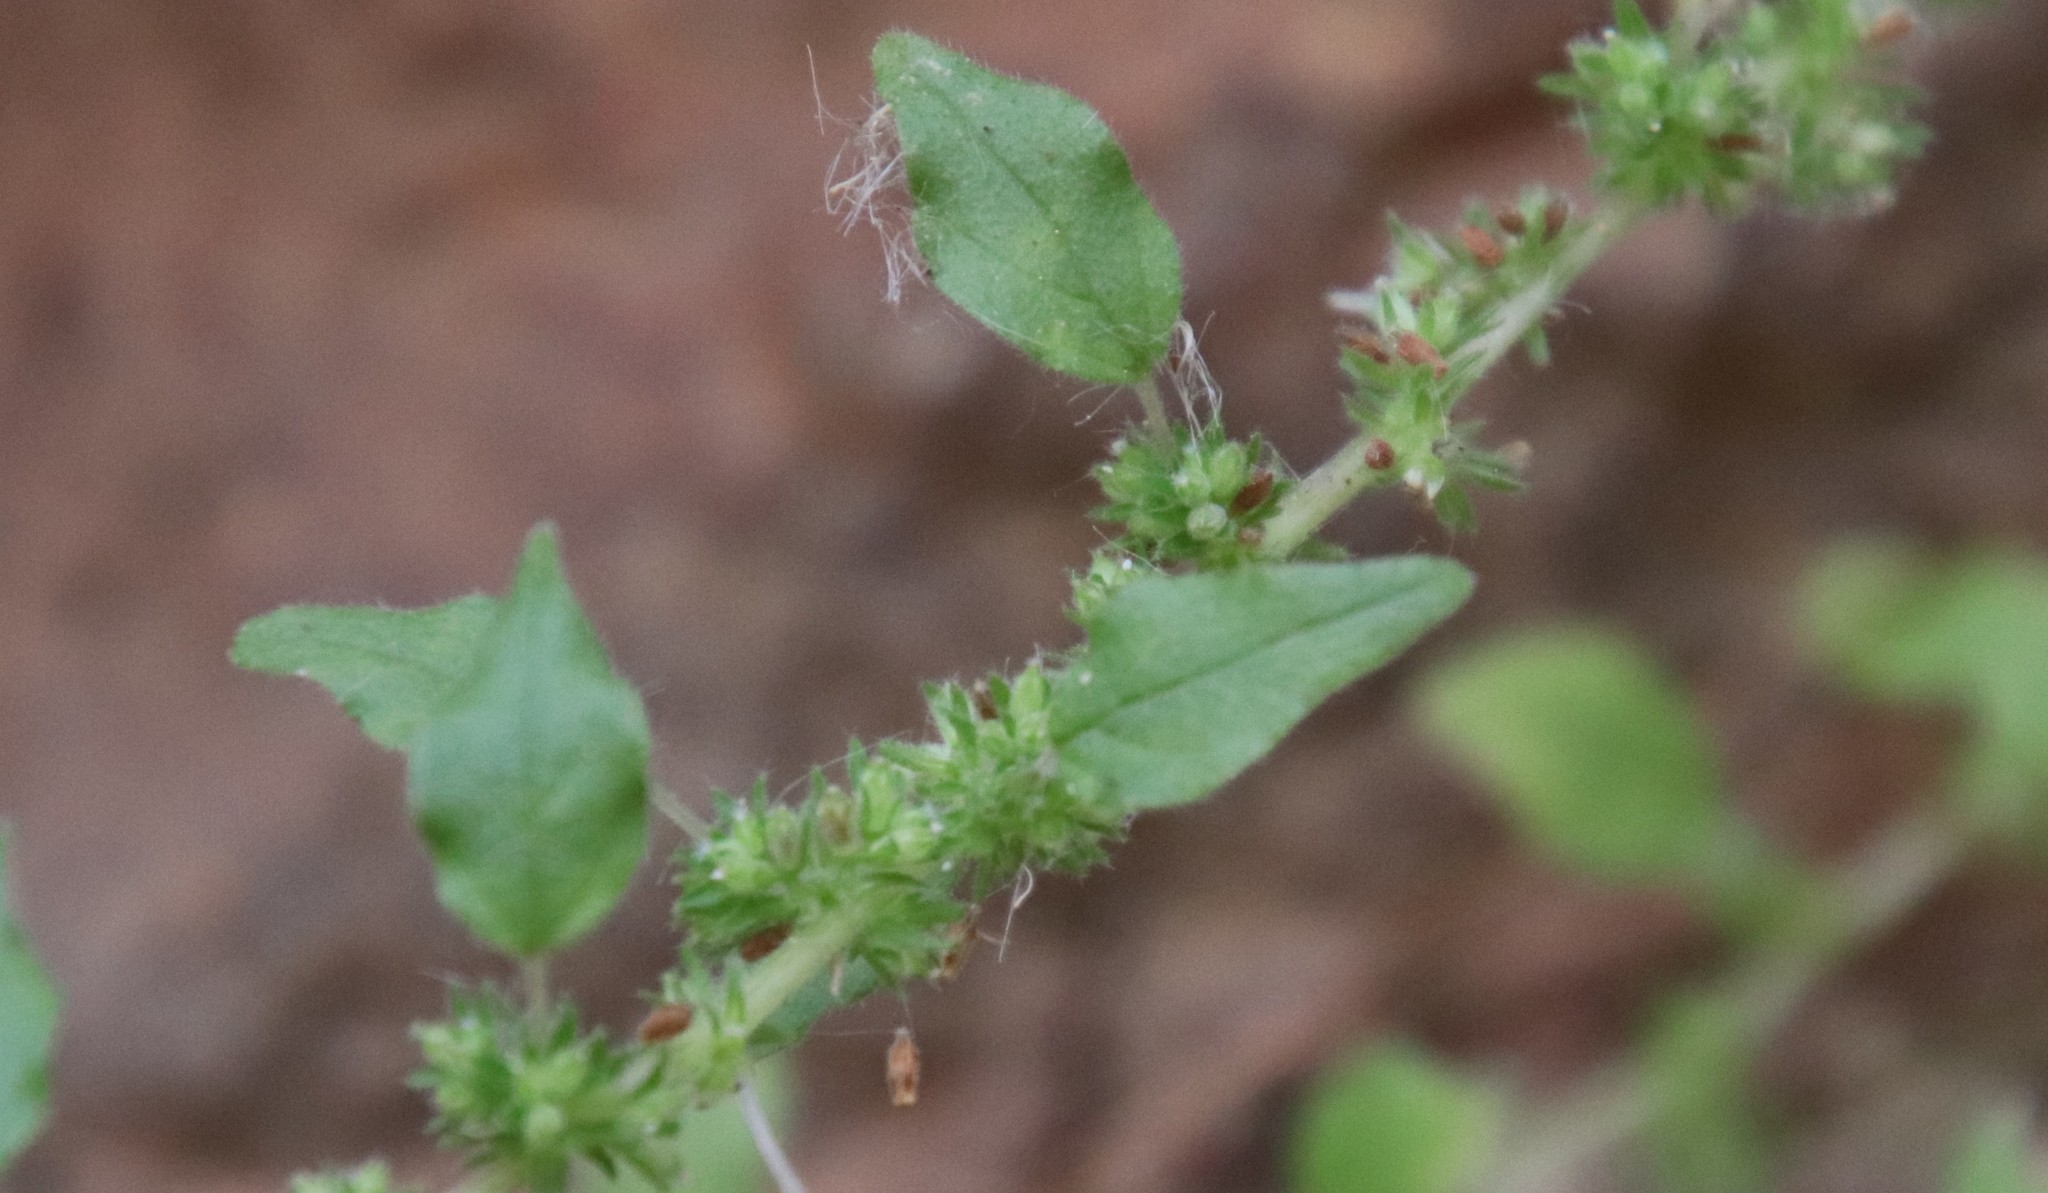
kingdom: Plantae
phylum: Tracheophyta
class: Magnoliopsida
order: Rosales
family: Urticaceae
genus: Parietaria
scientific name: Parietaria hespera
